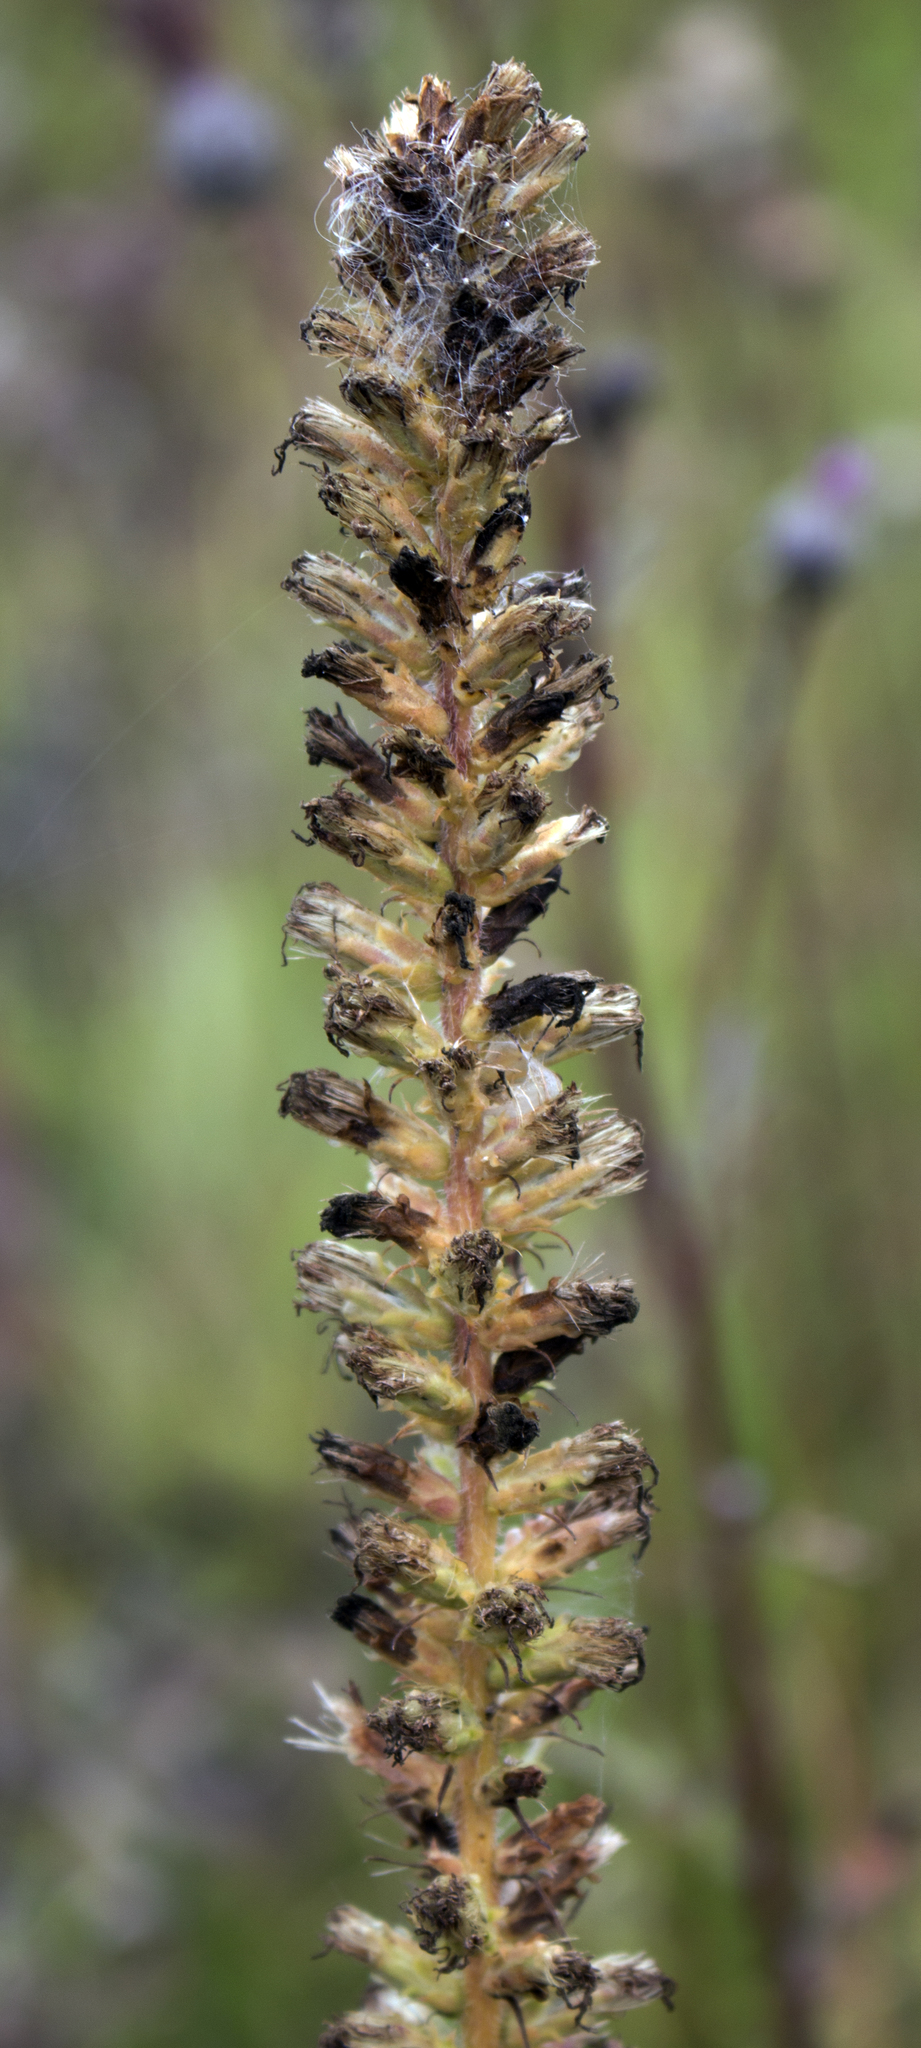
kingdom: Plantae
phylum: Tracheophyta
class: Magnoliopsida
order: Asterales
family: Asteraceae
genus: Liatris
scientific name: Liatris pycnostachya
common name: Cattail gayfeather
